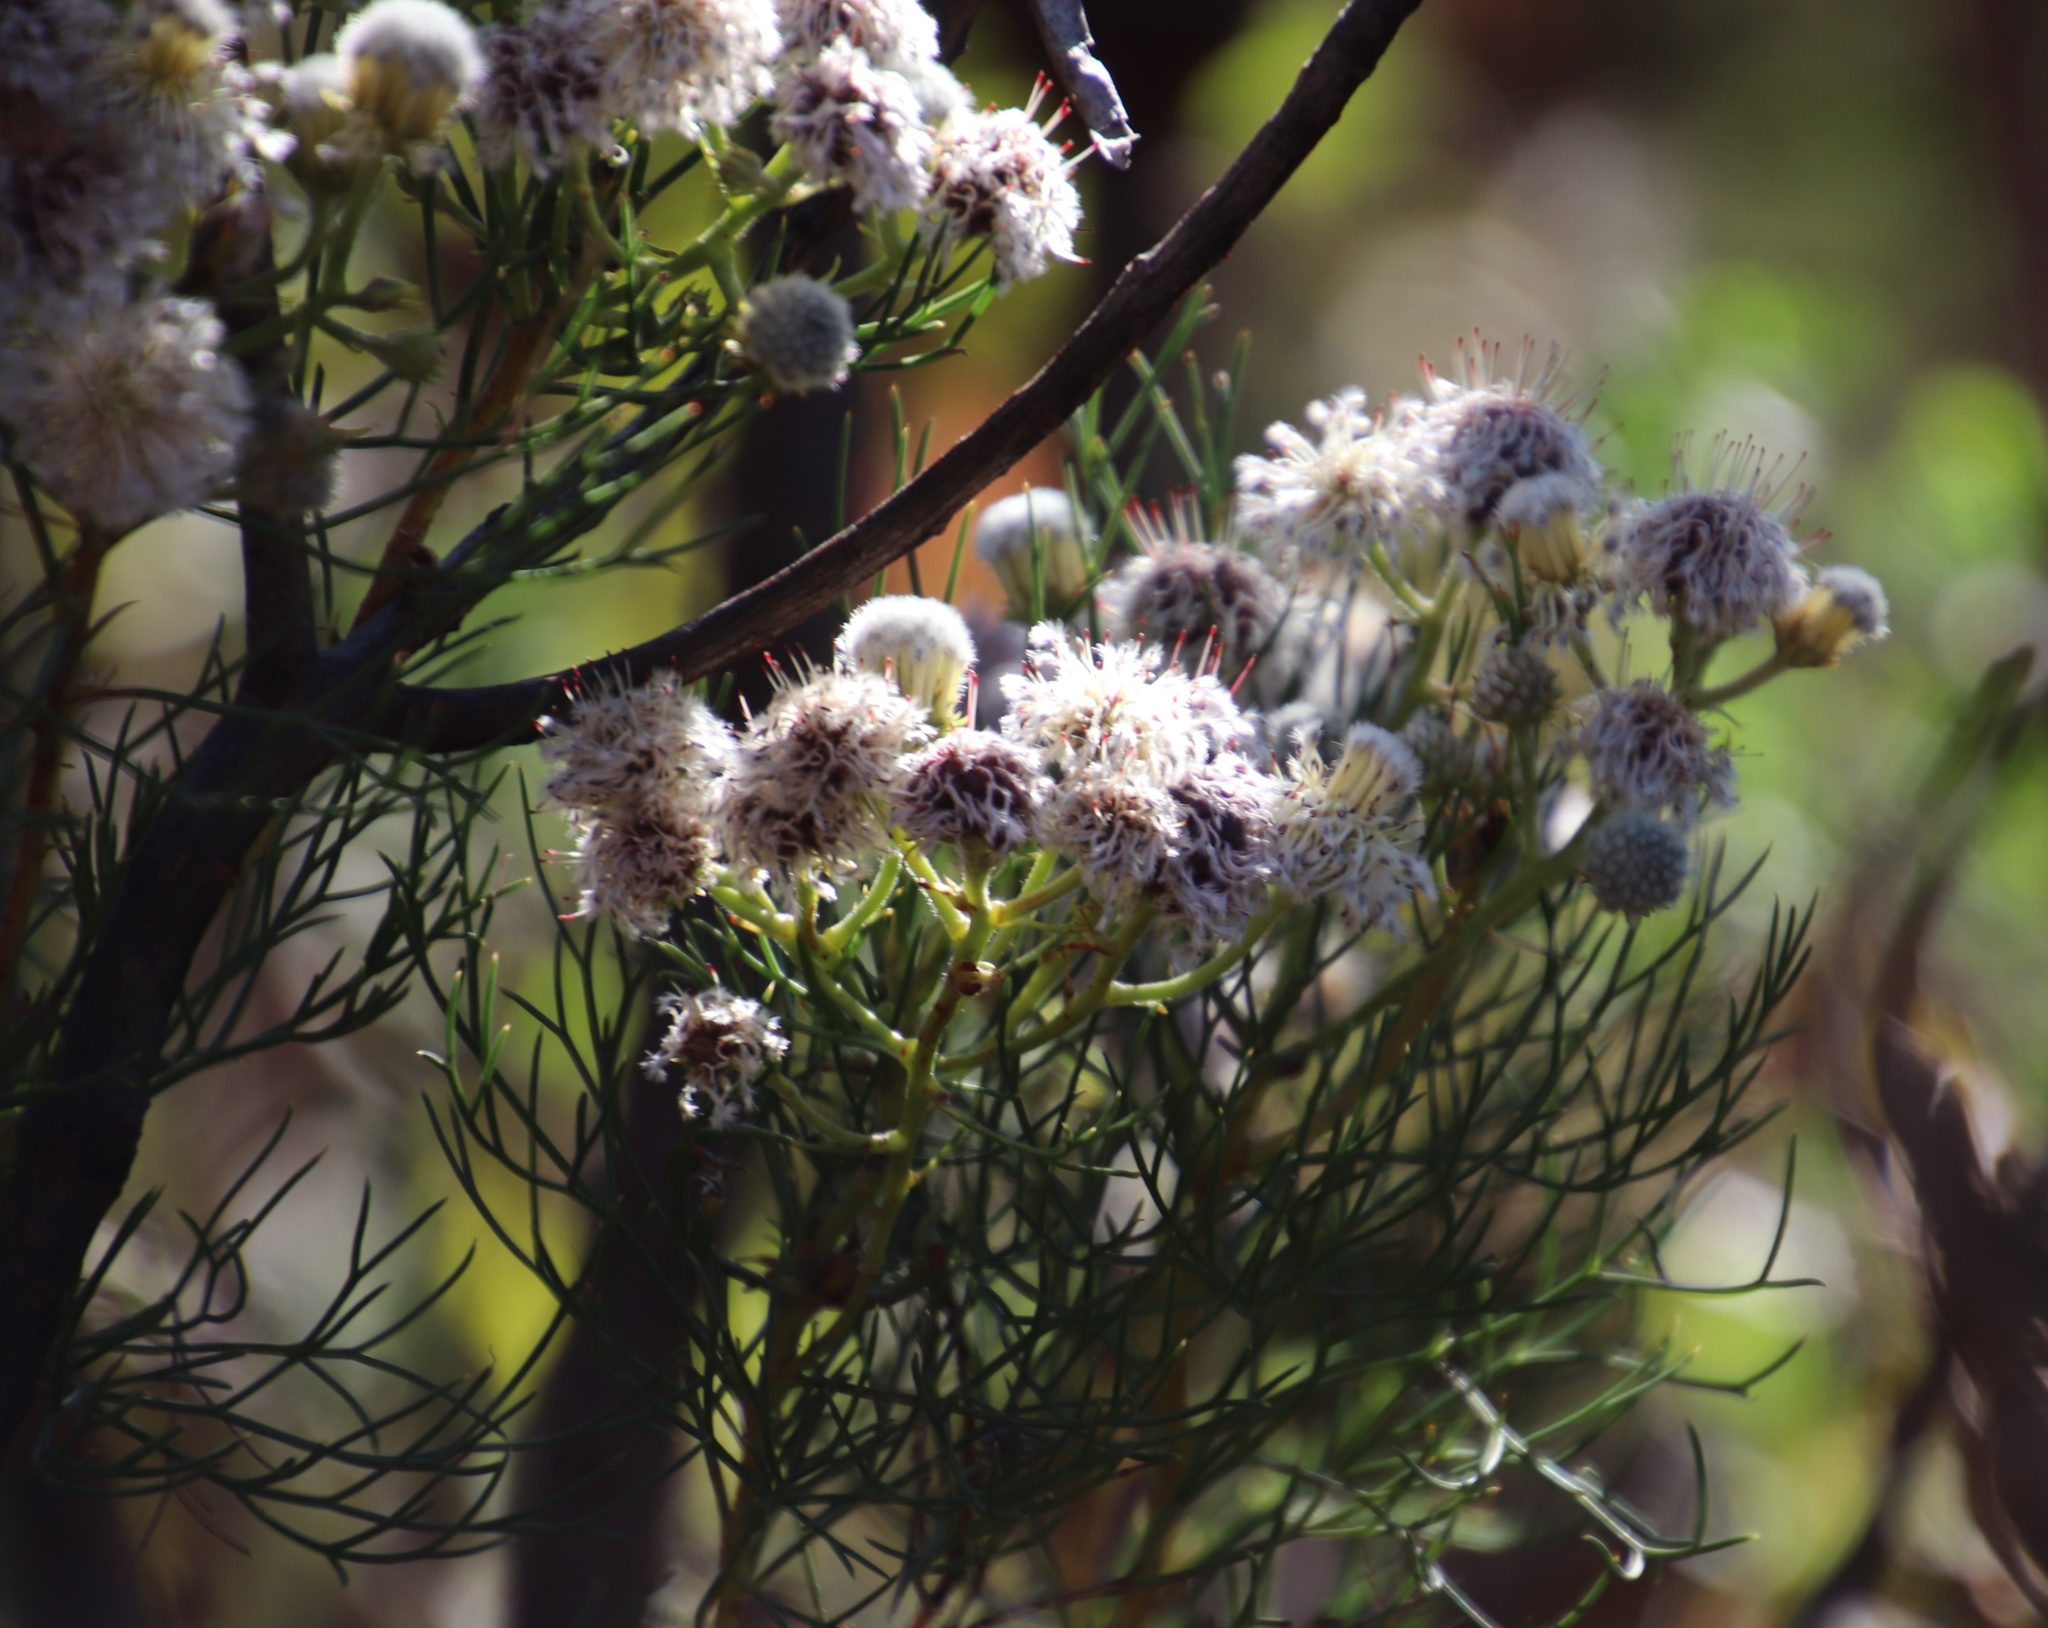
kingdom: Plantae
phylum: Tracheophyta
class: Magnoliopsida
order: Proteales
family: Proteaceae
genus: Serruria
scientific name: Serruria kraussii
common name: Snowball spiderhead
